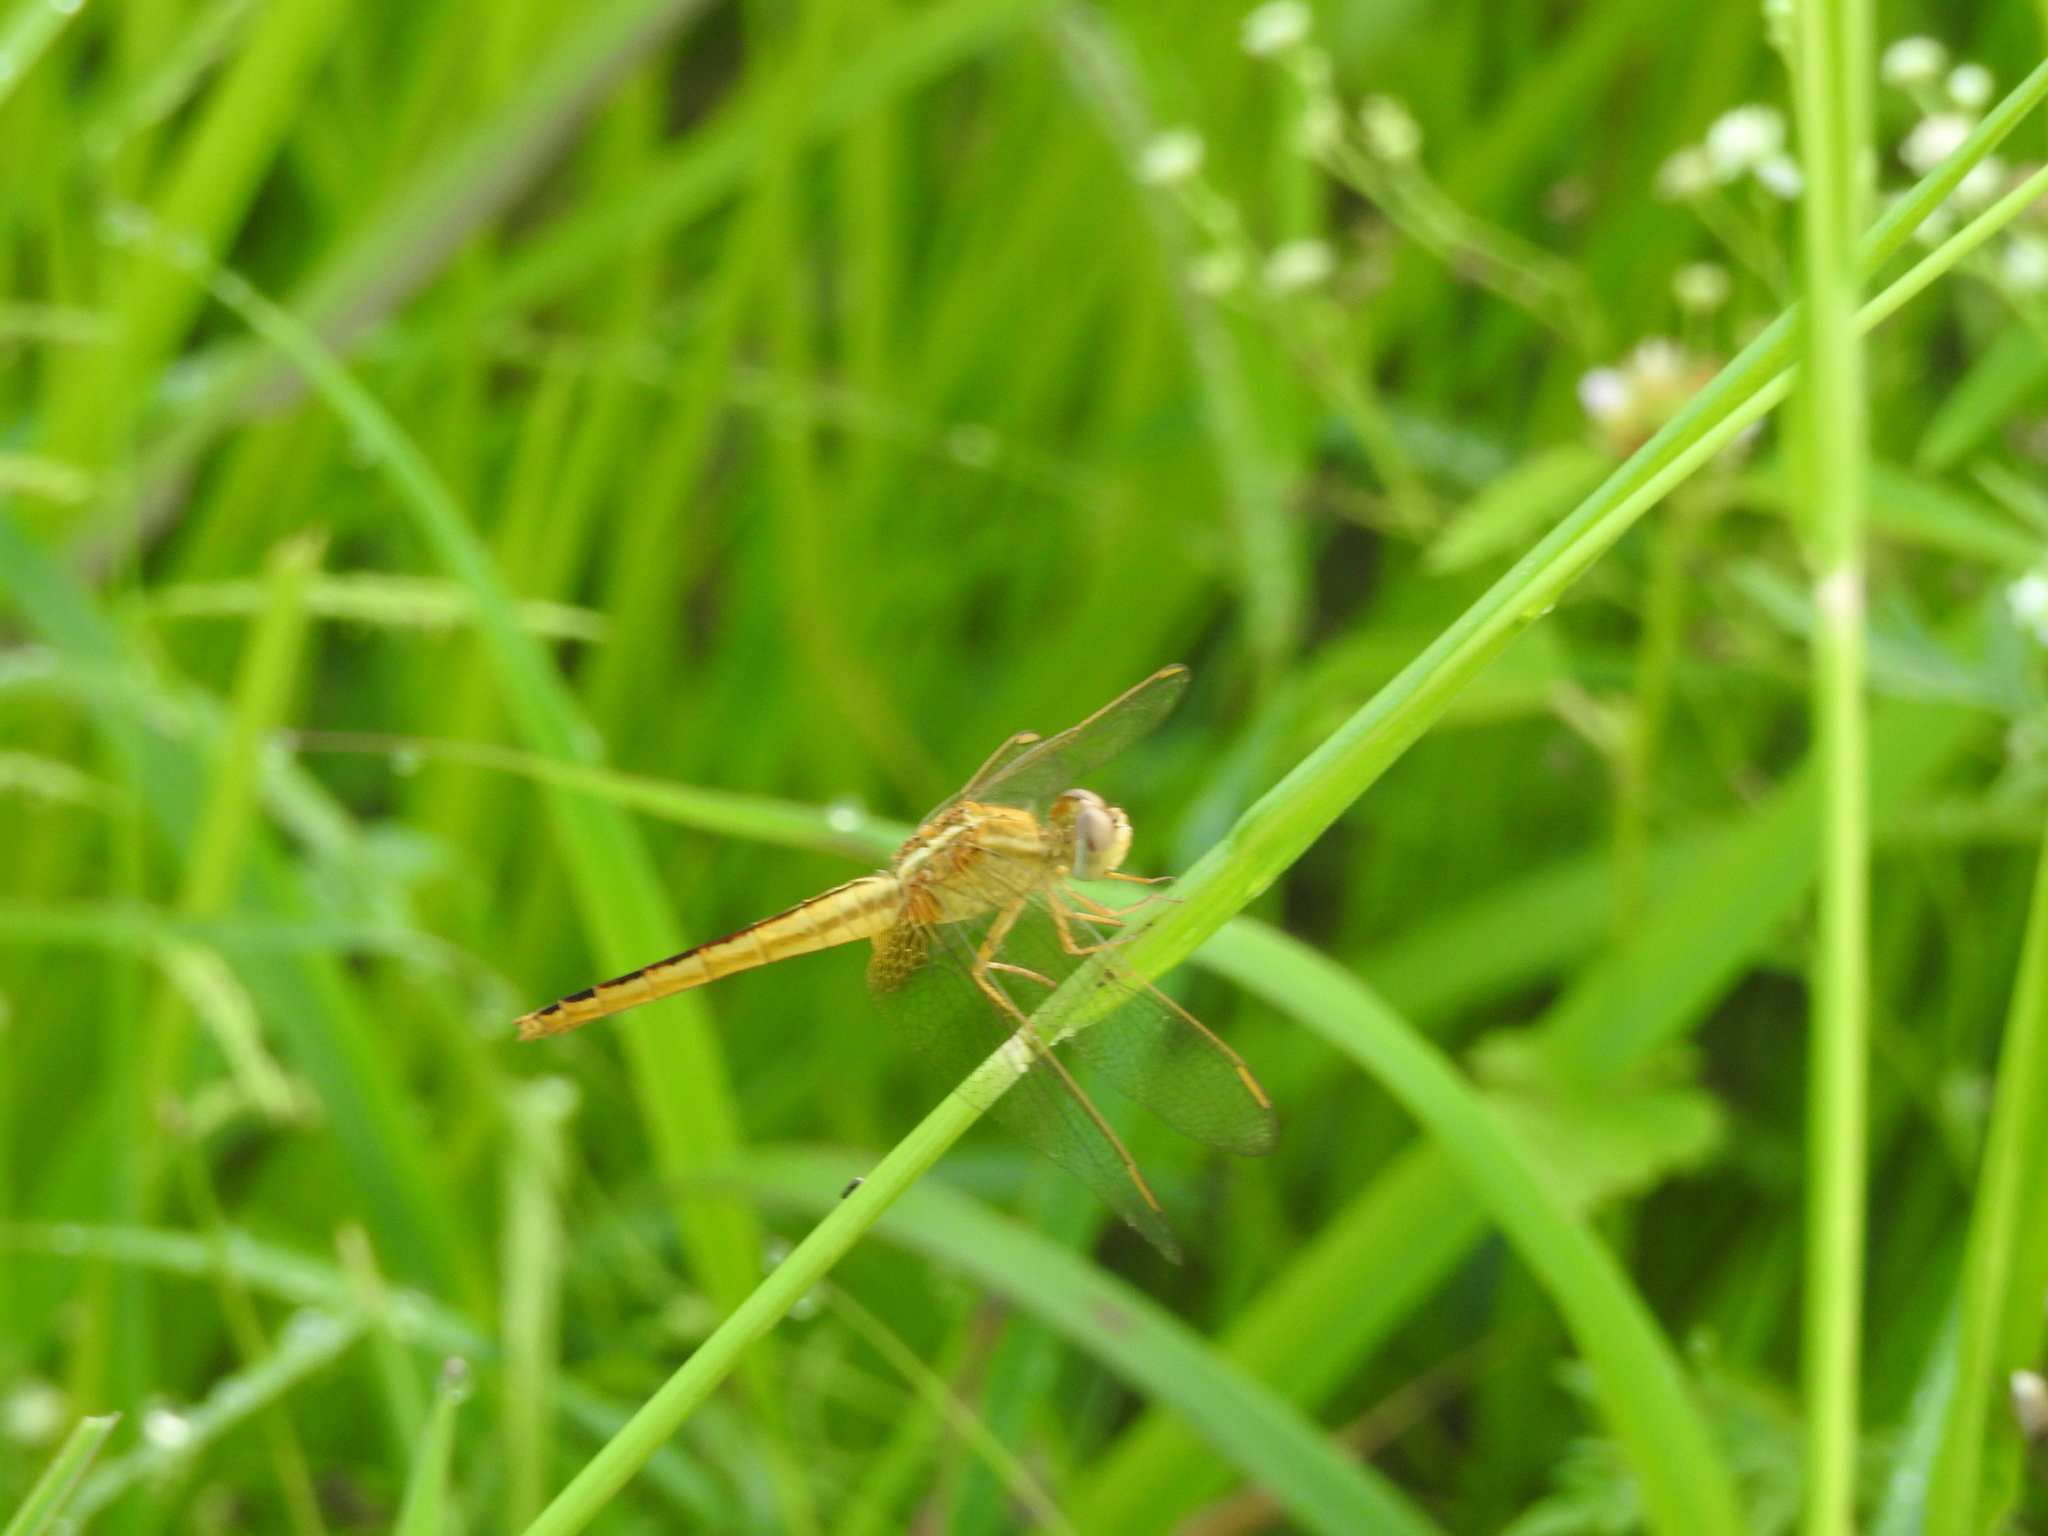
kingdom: Animalia
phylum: Arthropoda
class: Insecta
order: Odonata
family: Libellulidae
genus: Crocothemis
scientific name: Crocothemis servilia
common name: Scarlet skimmer
